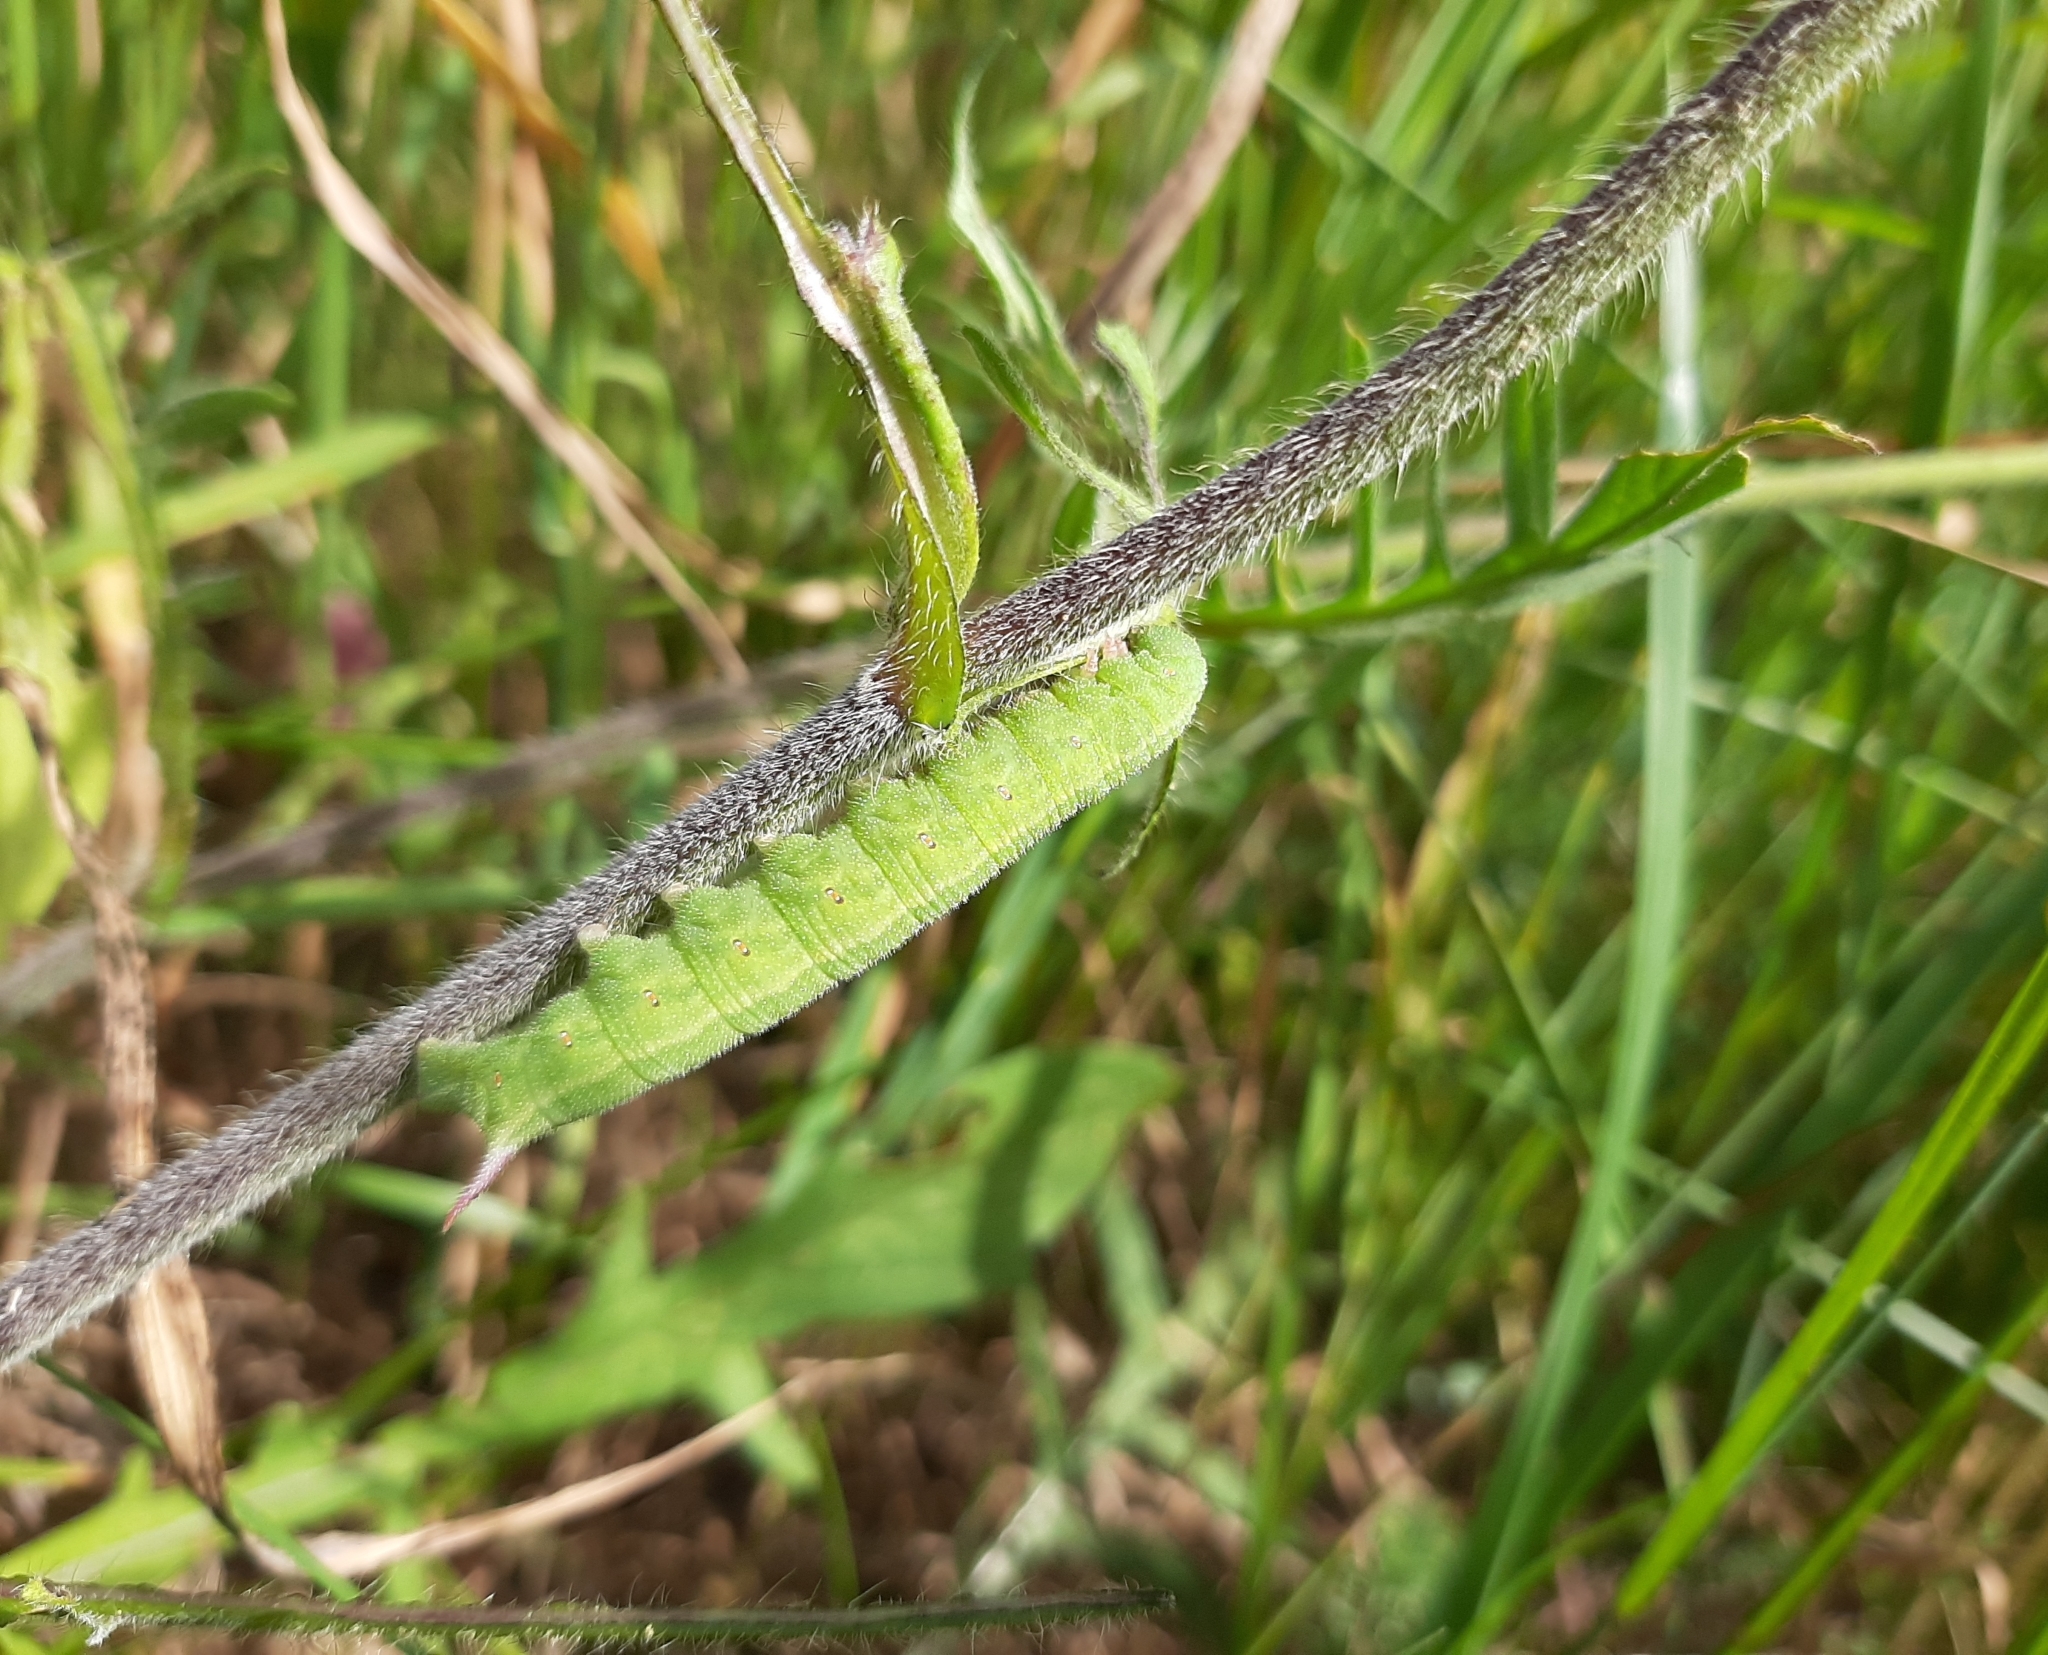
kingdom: Animalia
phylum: Arthropoda
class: Insecta
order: Lepidoptera
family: Sphingidae
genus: Hemaris
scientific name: Hemaris tityus
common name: Narrow-bordered bee hawk-moth
